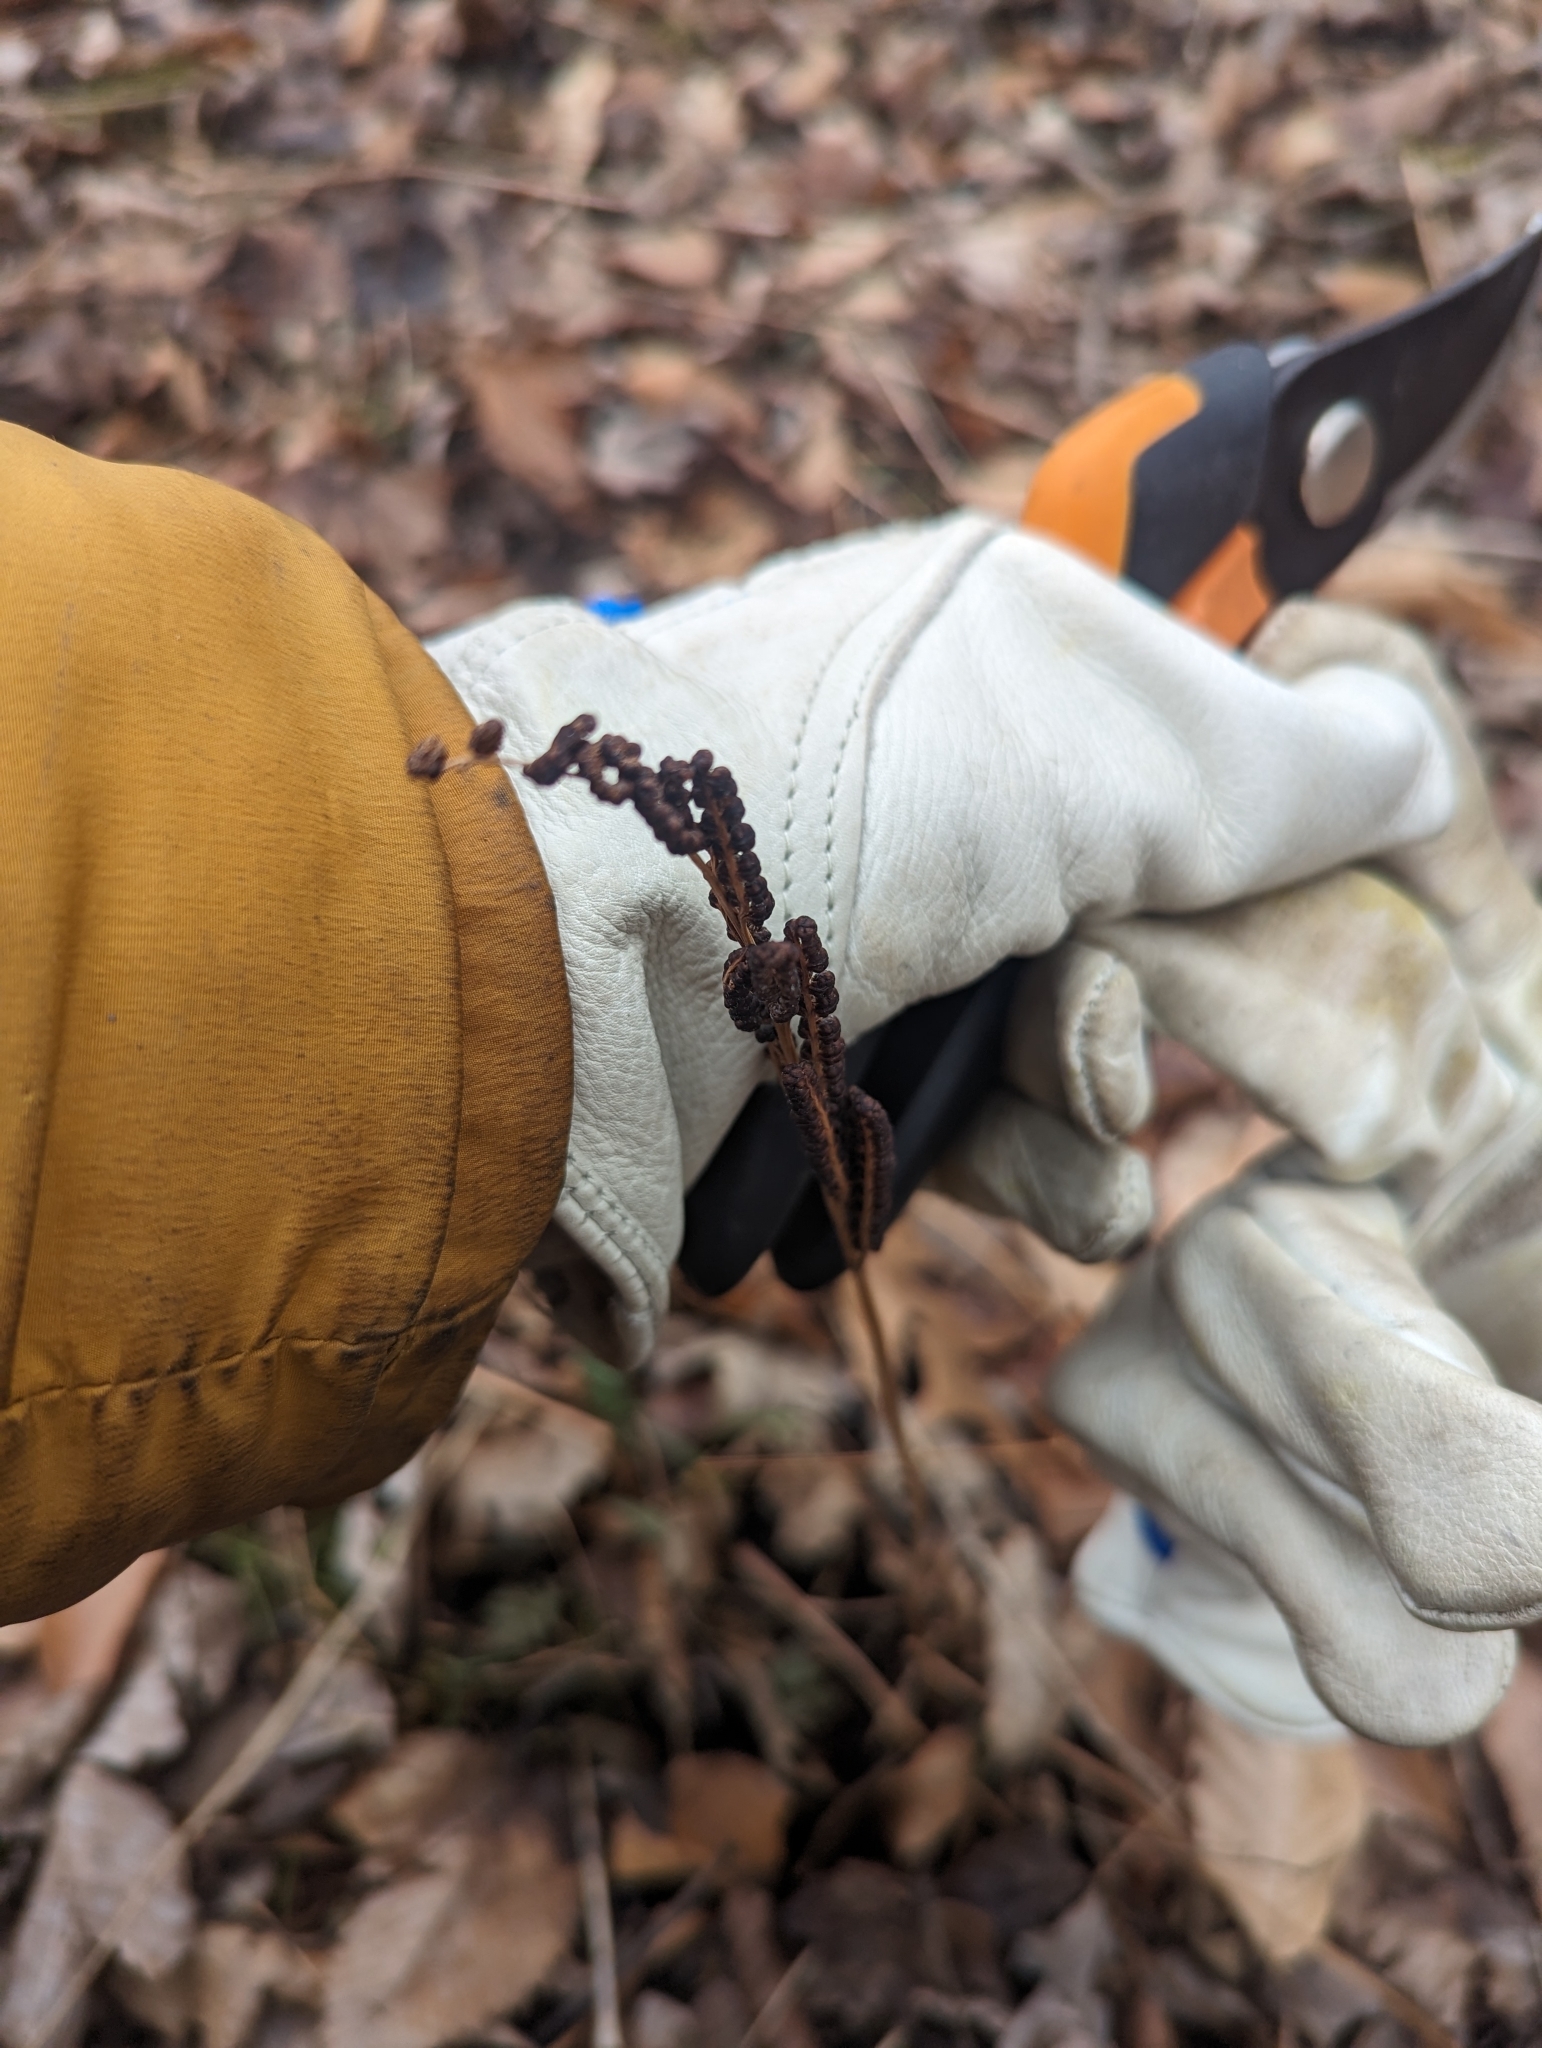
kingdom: Plantae
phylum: Tracheophyta
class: Polypodiopsida
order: Polypodiales
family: Onocleaceae
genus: Onoclea
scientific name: Onoclea sensibilis
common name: Sensitive fern
